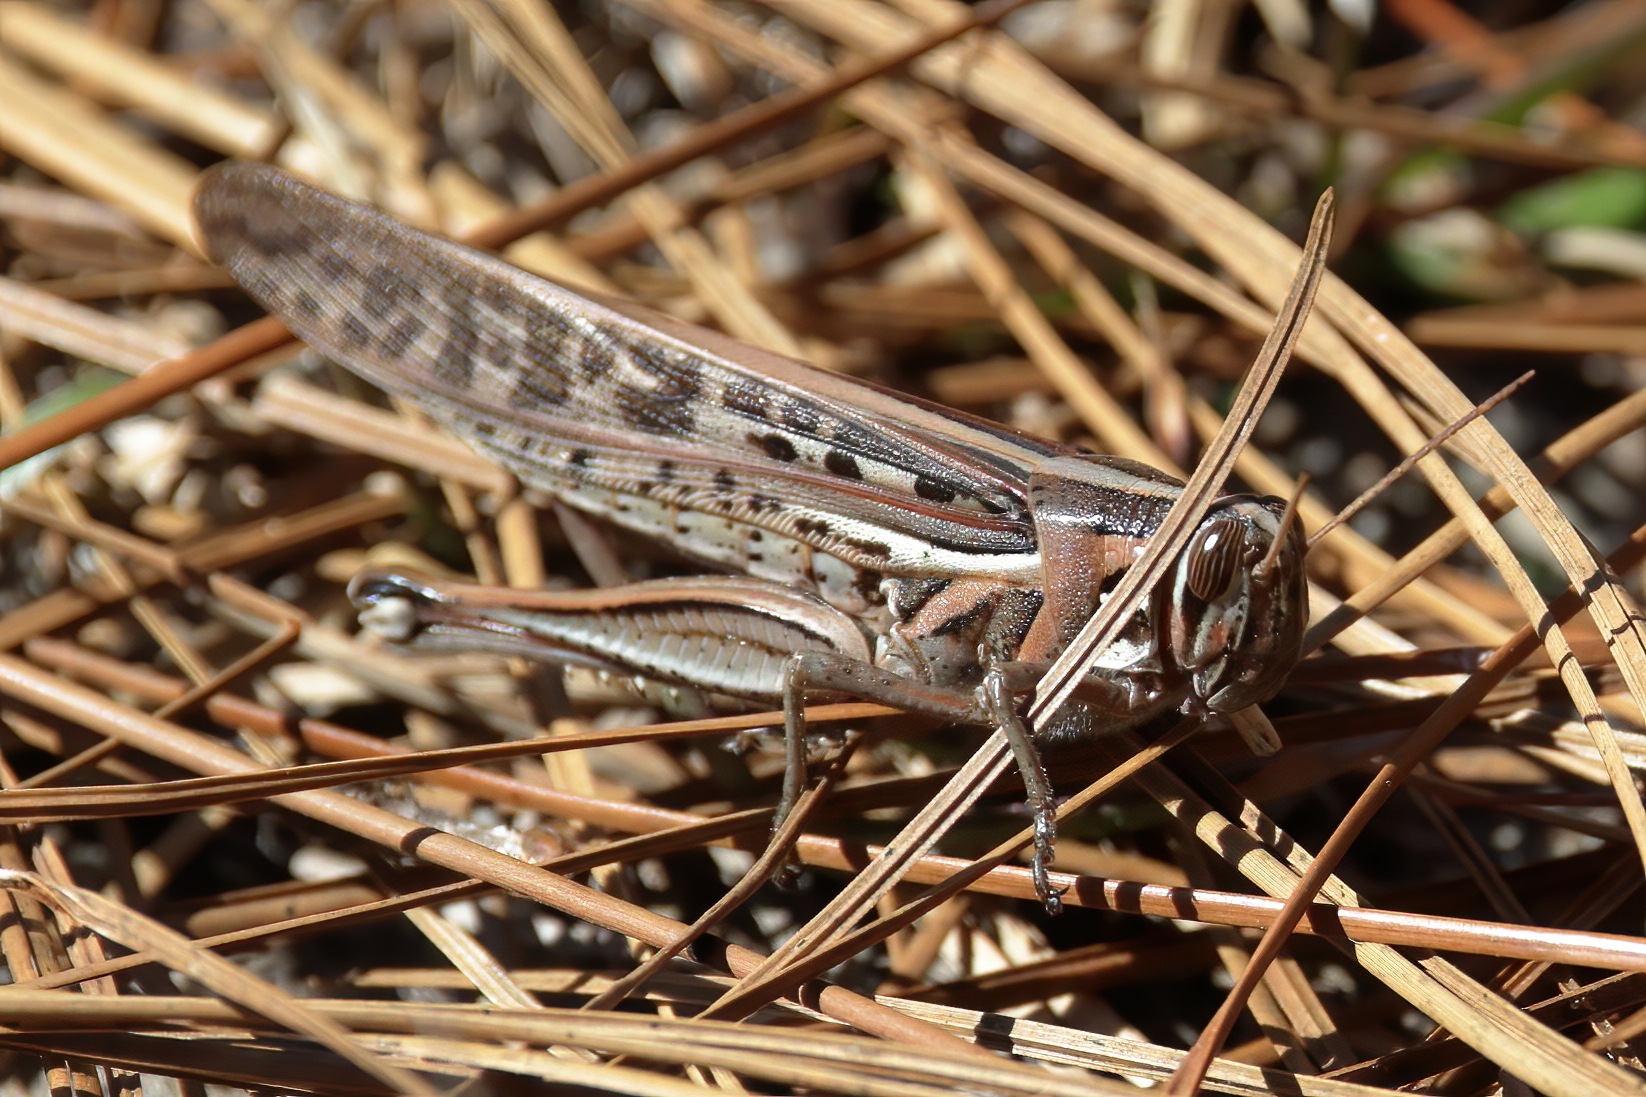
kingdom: Animalia
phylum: Arthropoda
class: Insecta
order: Orthoptera
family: Acrididae
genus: Schistocerca
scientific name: Schistocerca americana
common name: American bird locust
